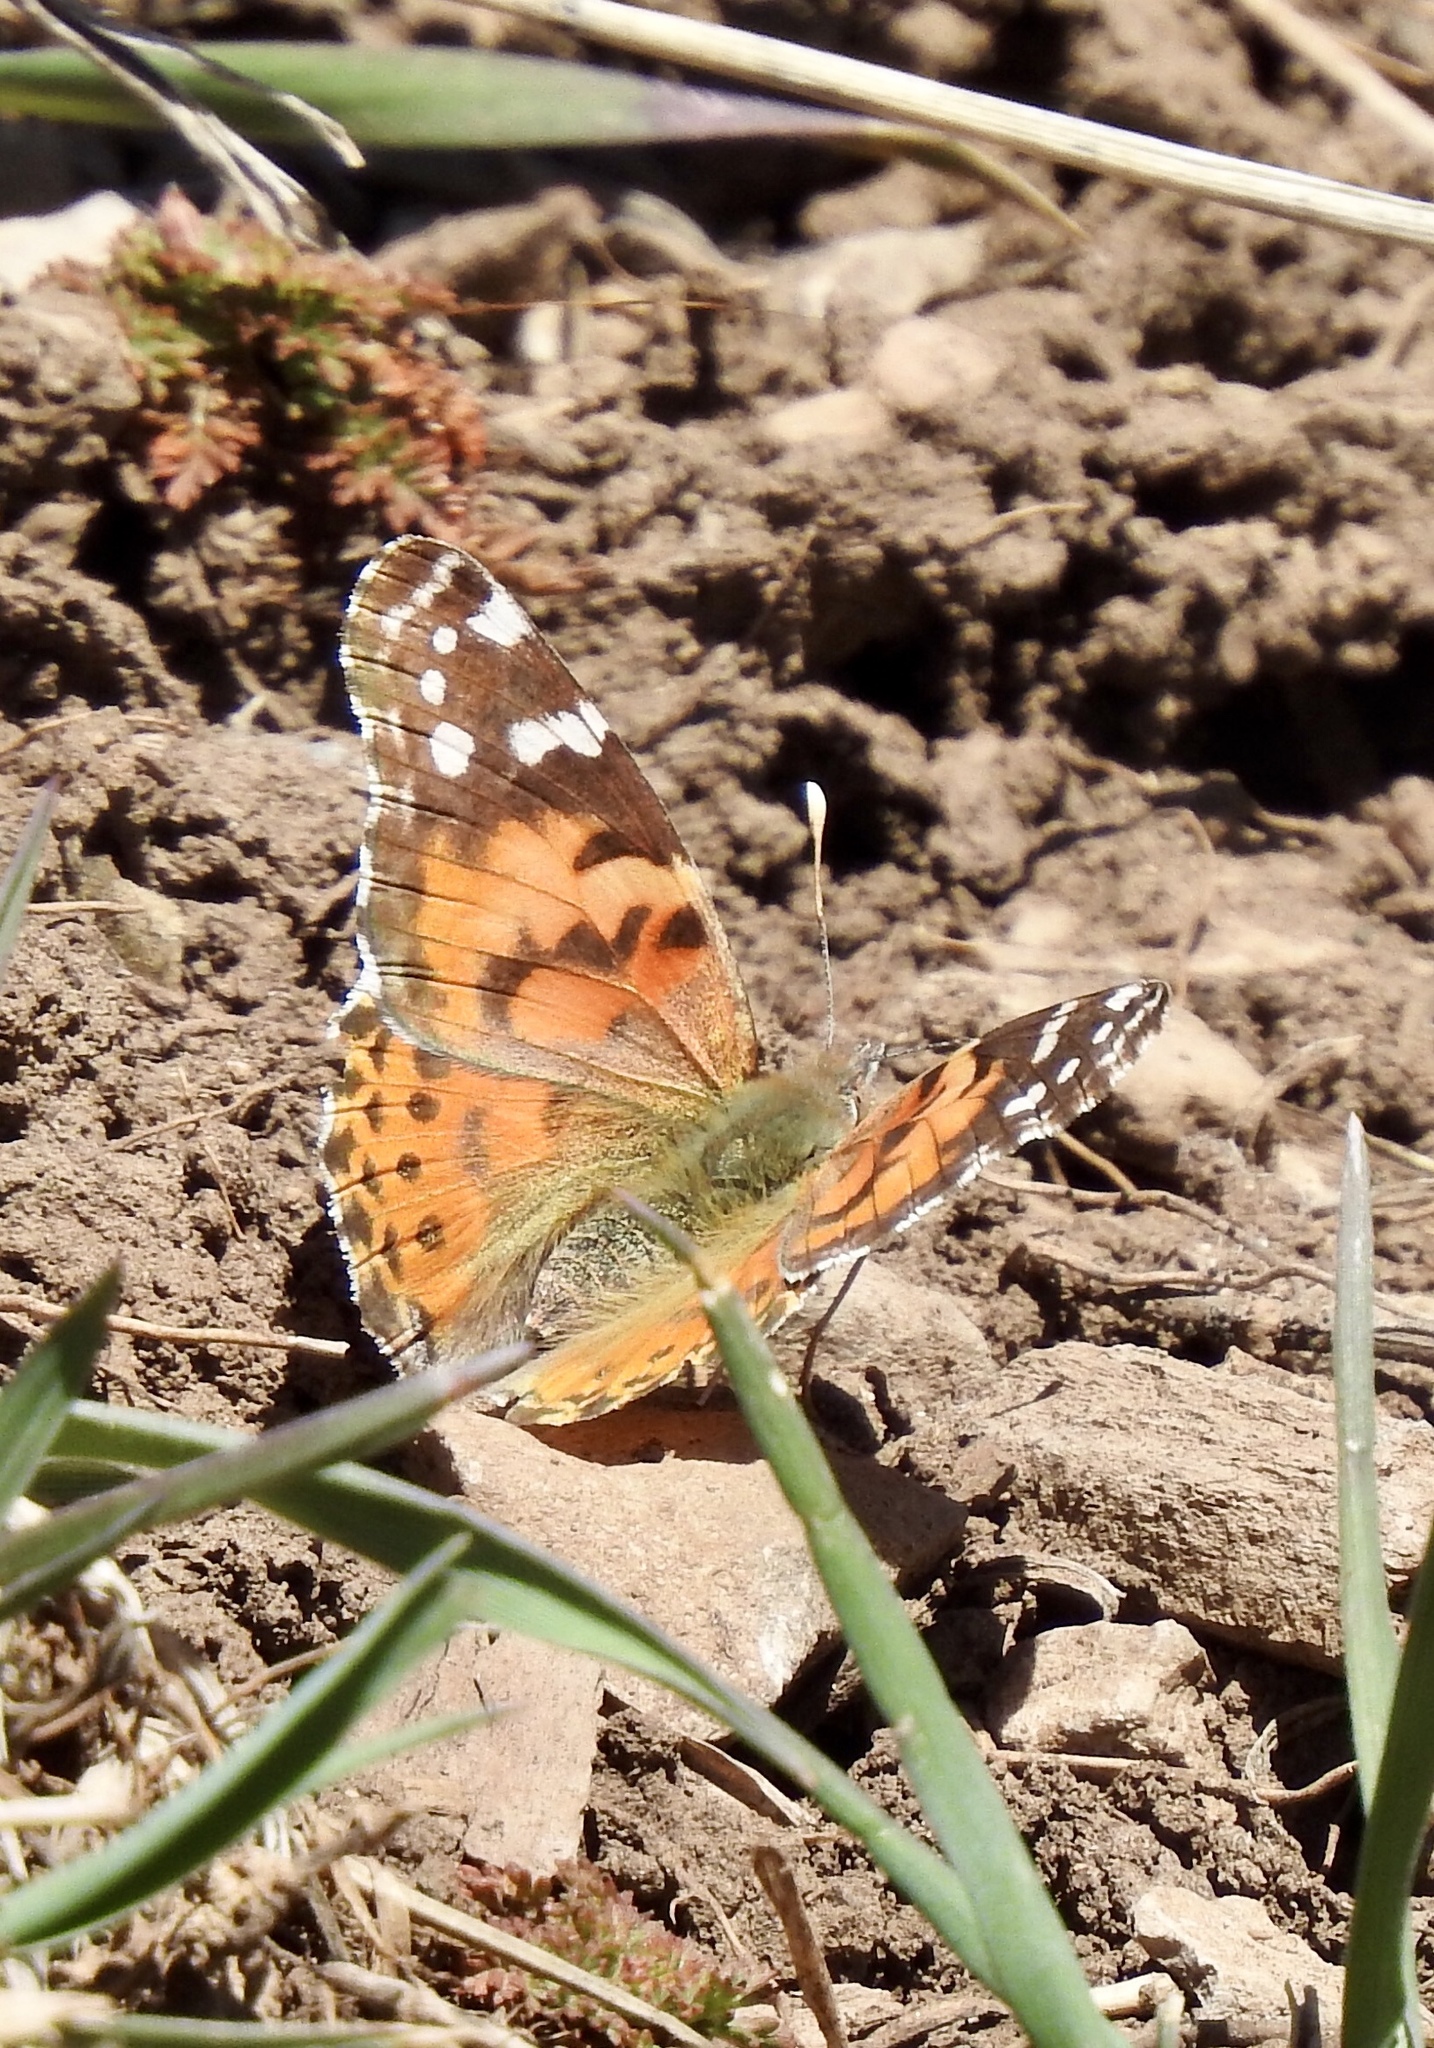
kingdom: Animalia
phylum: Arthropoda
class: Insecta
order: Lepidoptera
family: Nymphalidae
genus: Vanessa
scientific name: Vanessa cardui
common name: Painted lady
